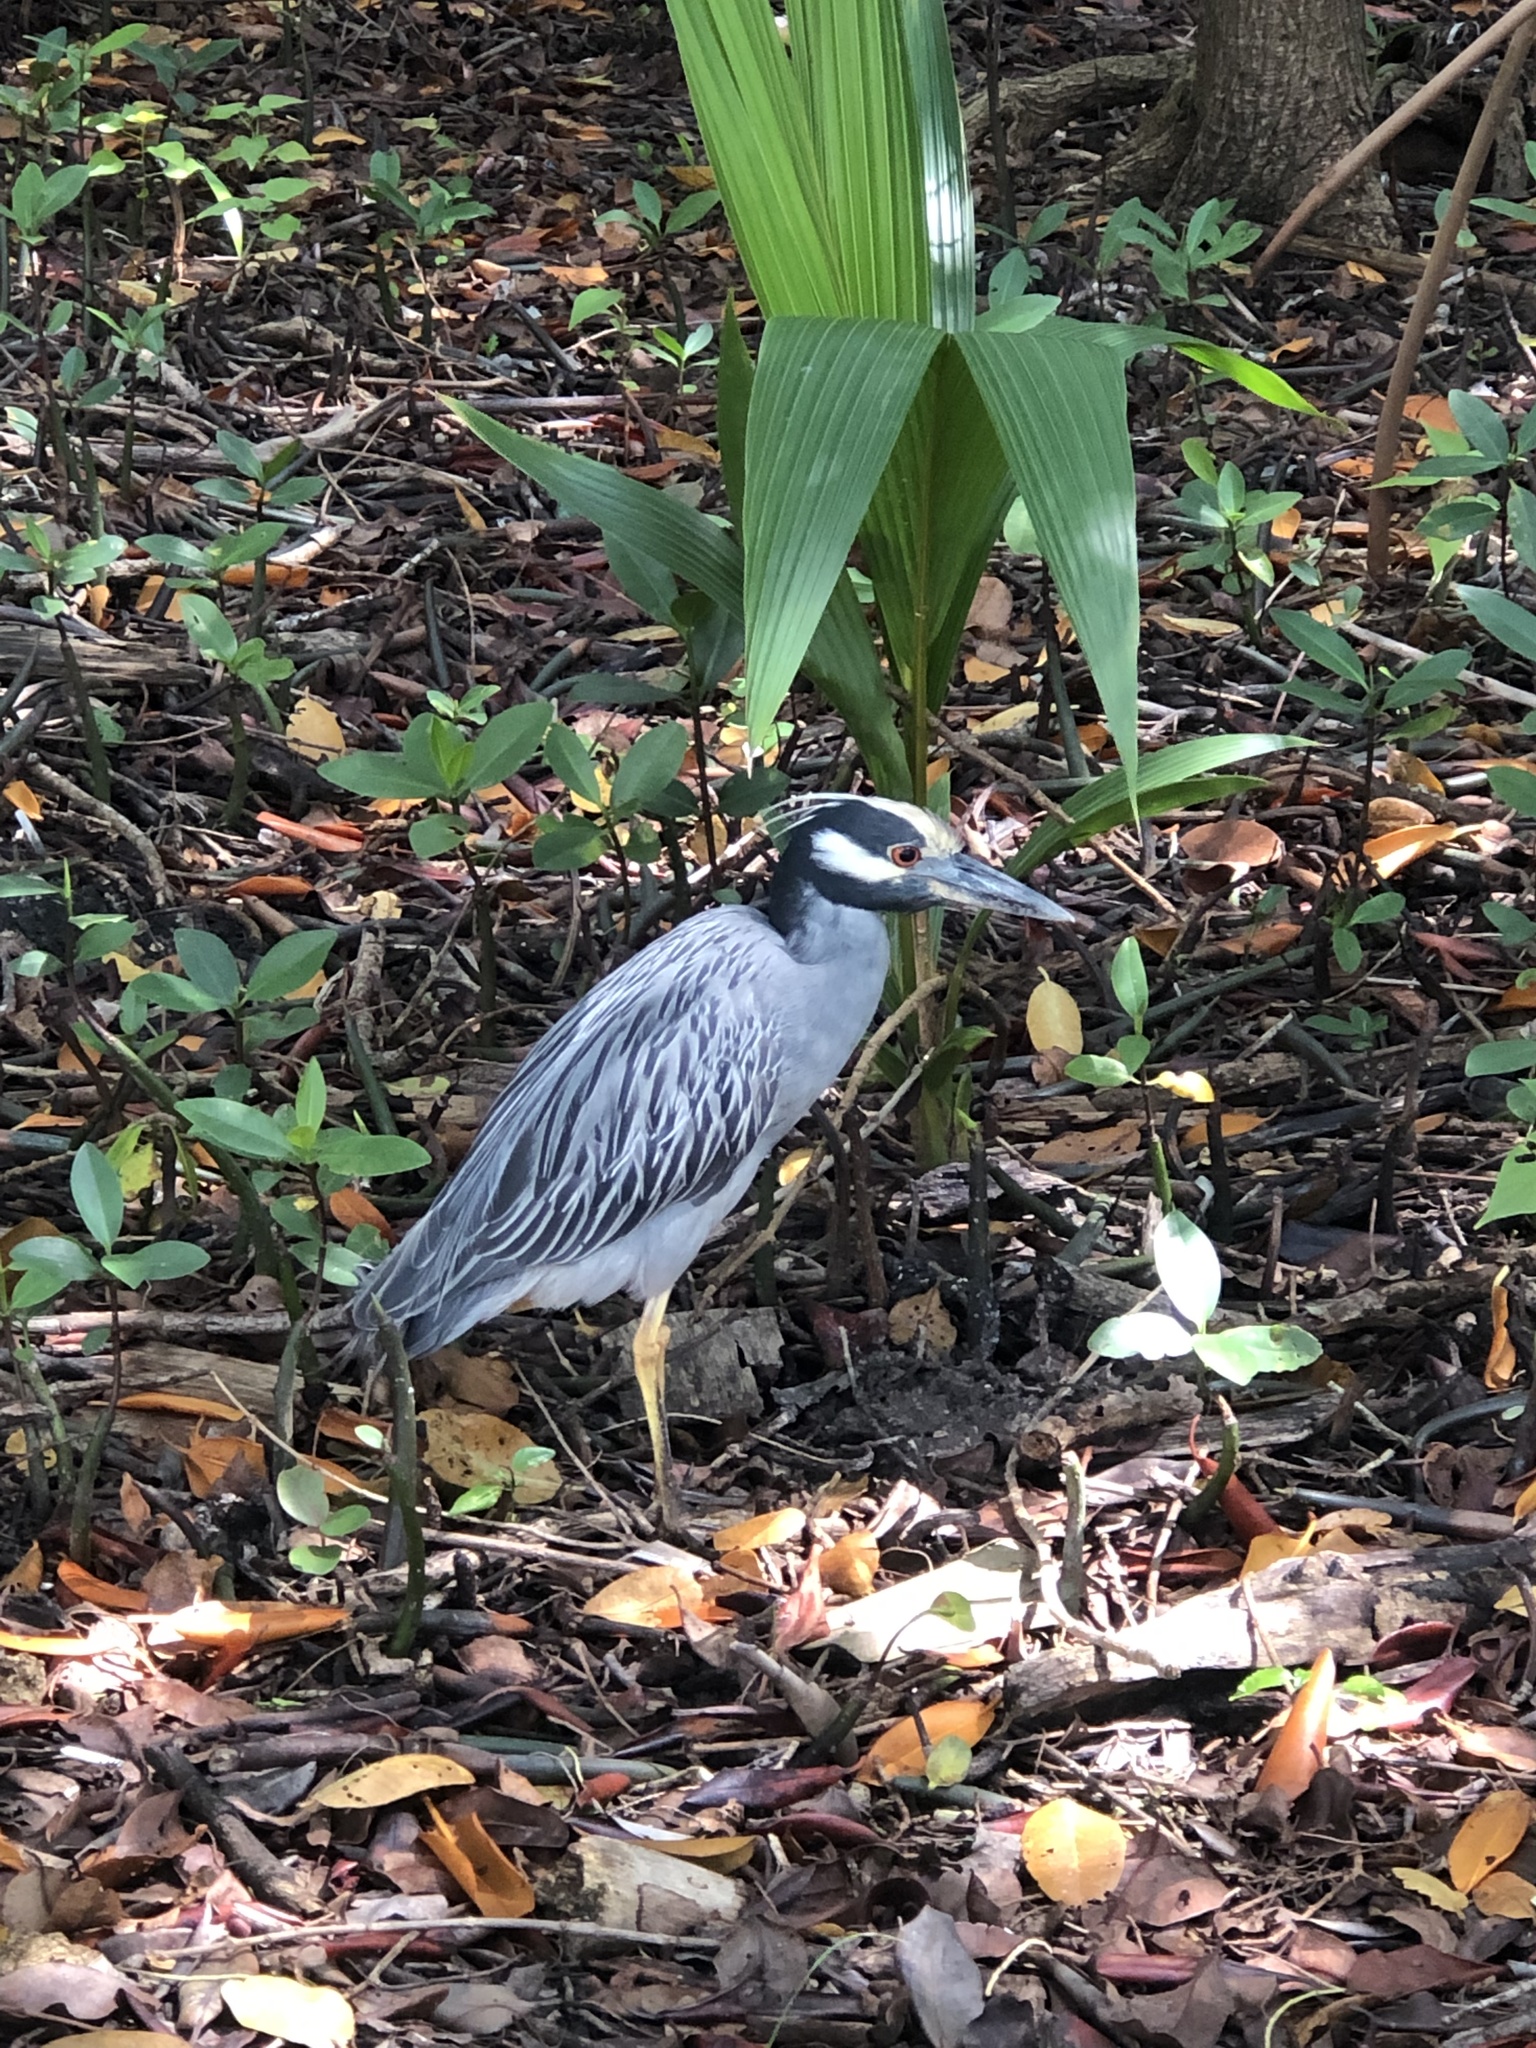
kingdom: Animalia
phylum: Chordata
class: Aves
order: Pelecaniformes
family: Ardeidae
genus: Nyctanassa
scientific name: Nyctanassa violacea
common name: Yellow-crowned night heron
